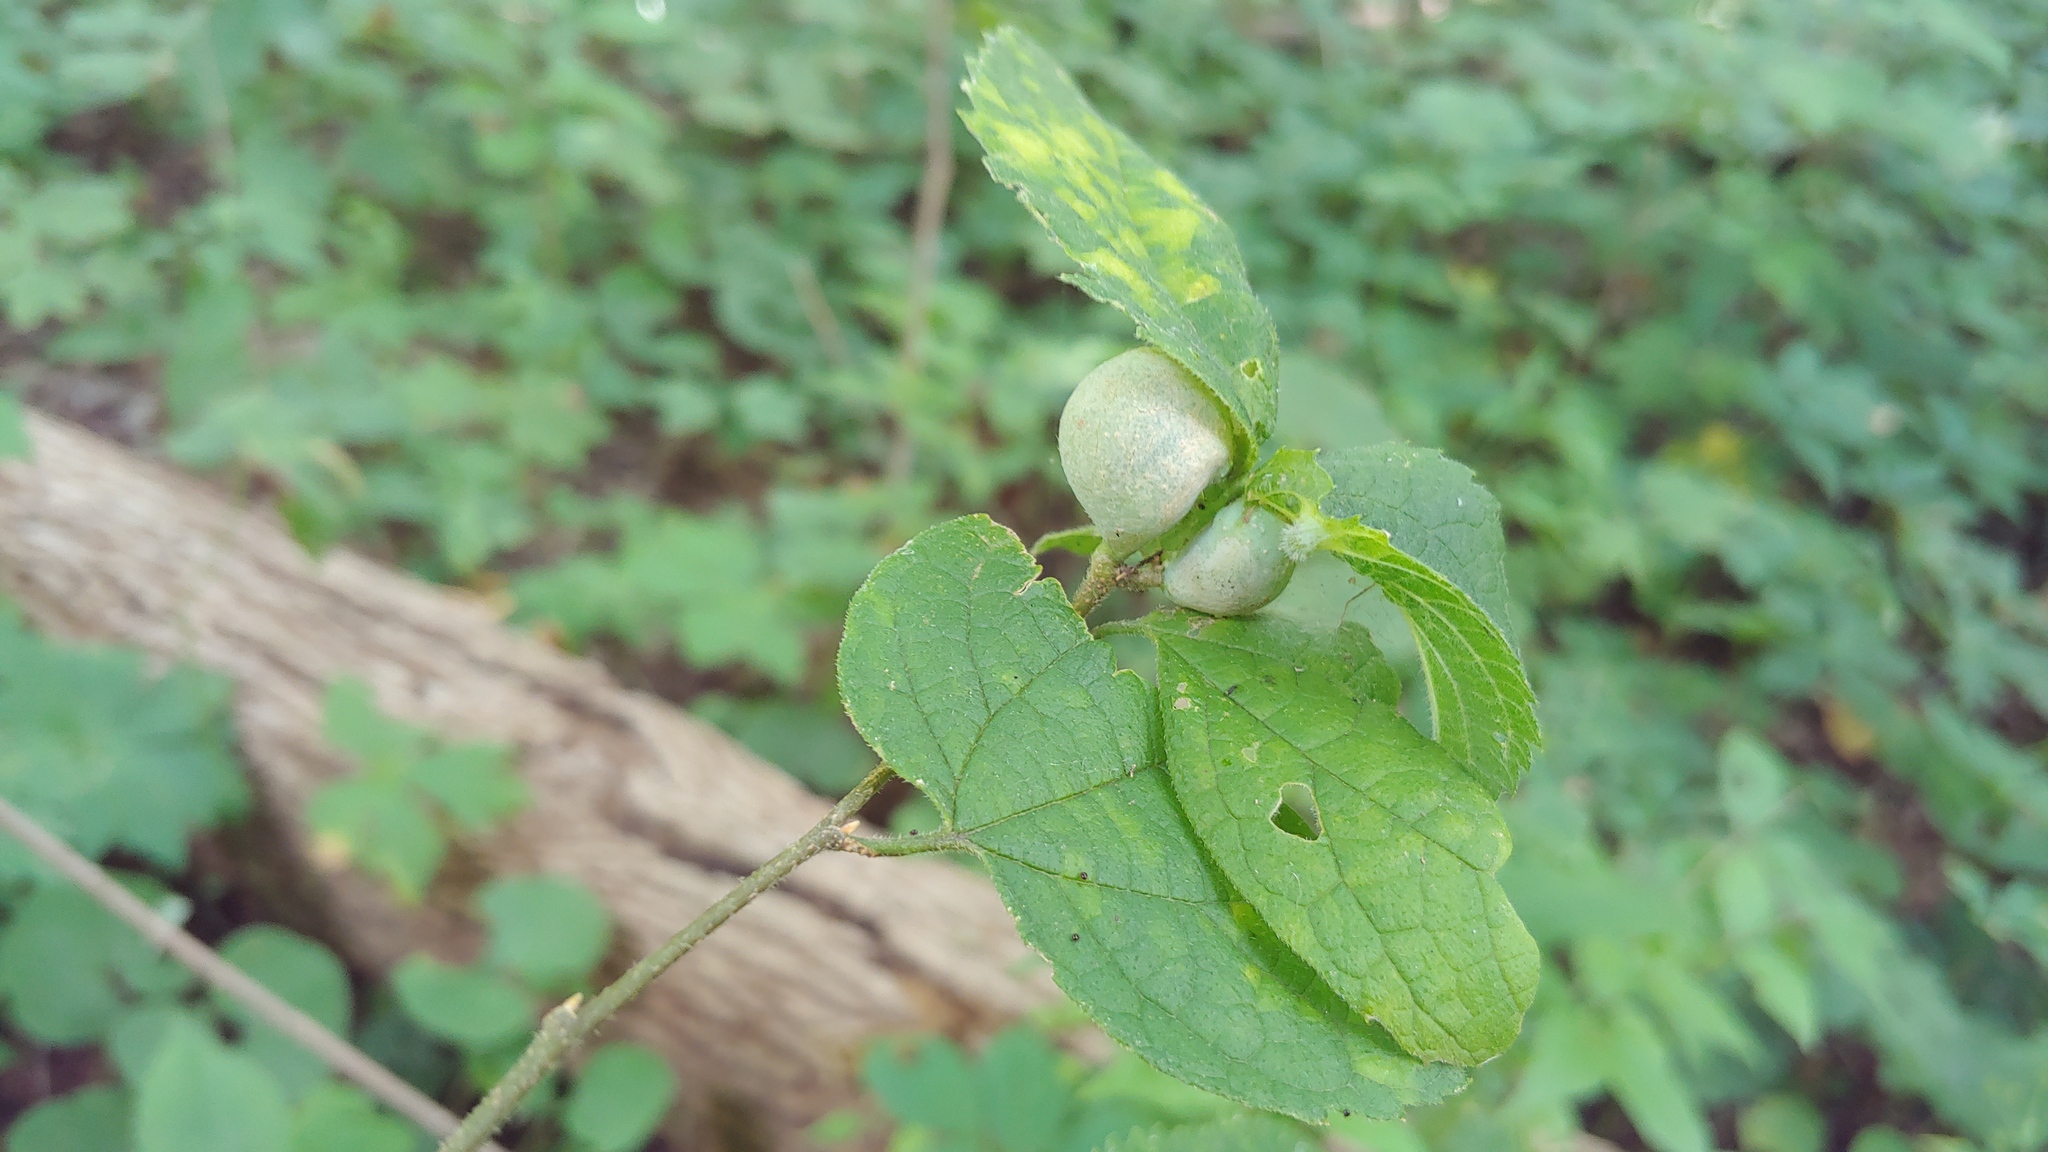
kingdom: Animalia
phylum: Arthropoda
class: Insecta
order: Hemiptera
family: Aphalaridae
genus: Pachypsylla
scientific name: Pachypsylla venusta
